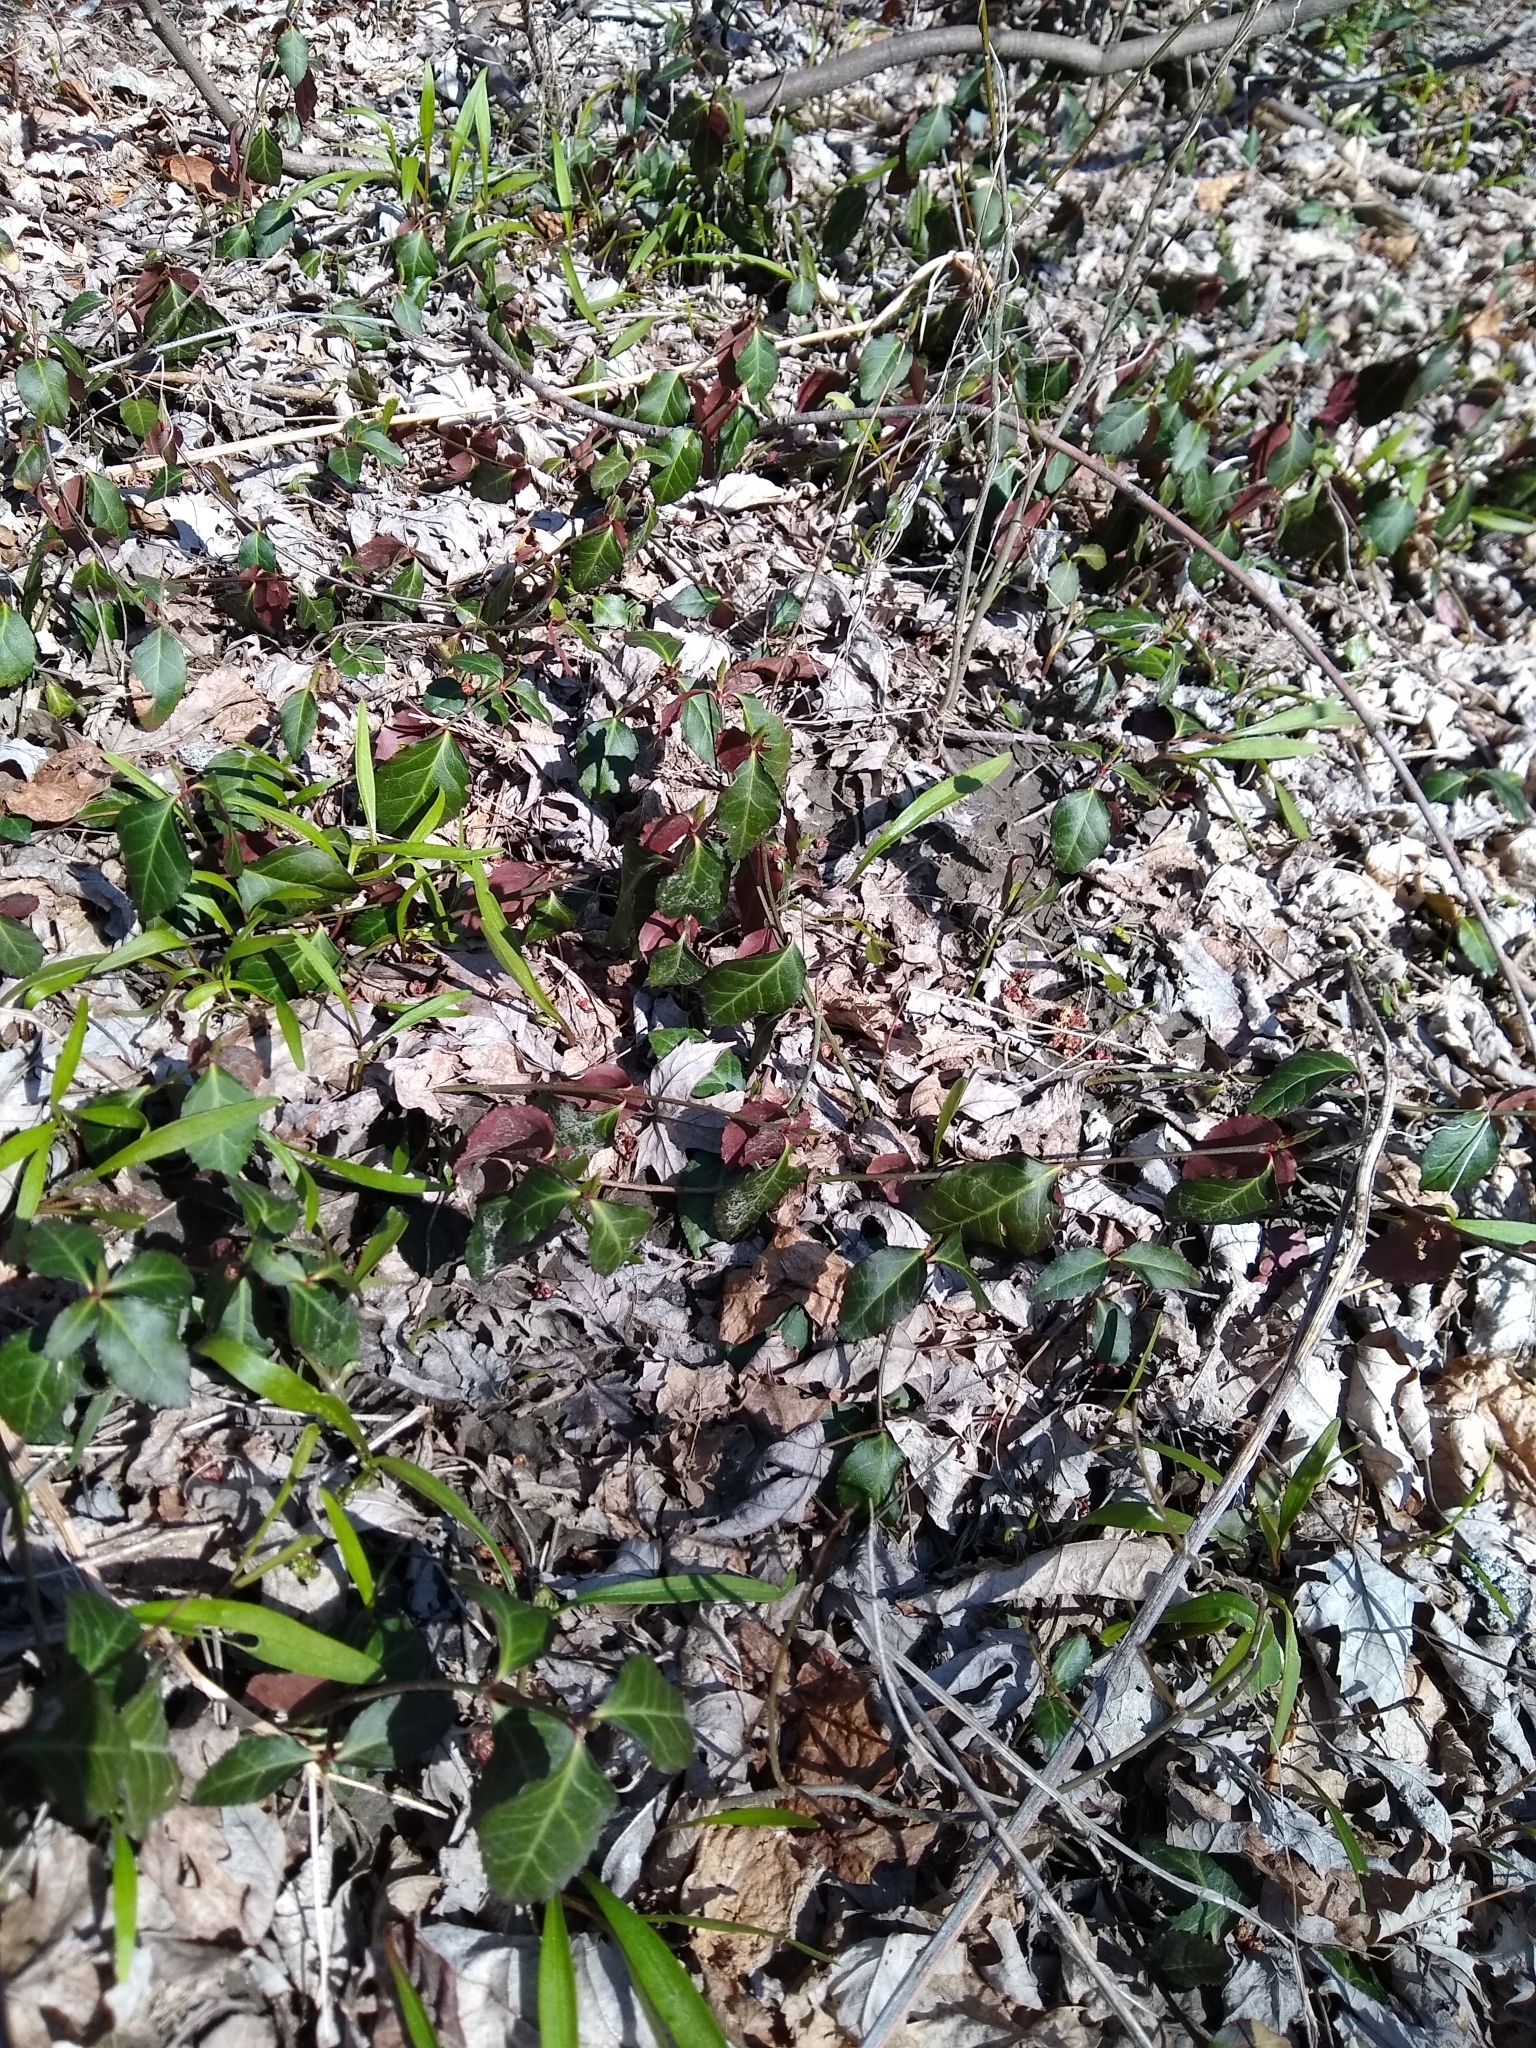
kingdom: Plantae
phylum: Tracheophyta
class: Magnoliopsida
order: Celastrales
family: Celastraceae
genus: Euonymus
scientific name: Euonymus fortunei
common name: Climbing euonymus
